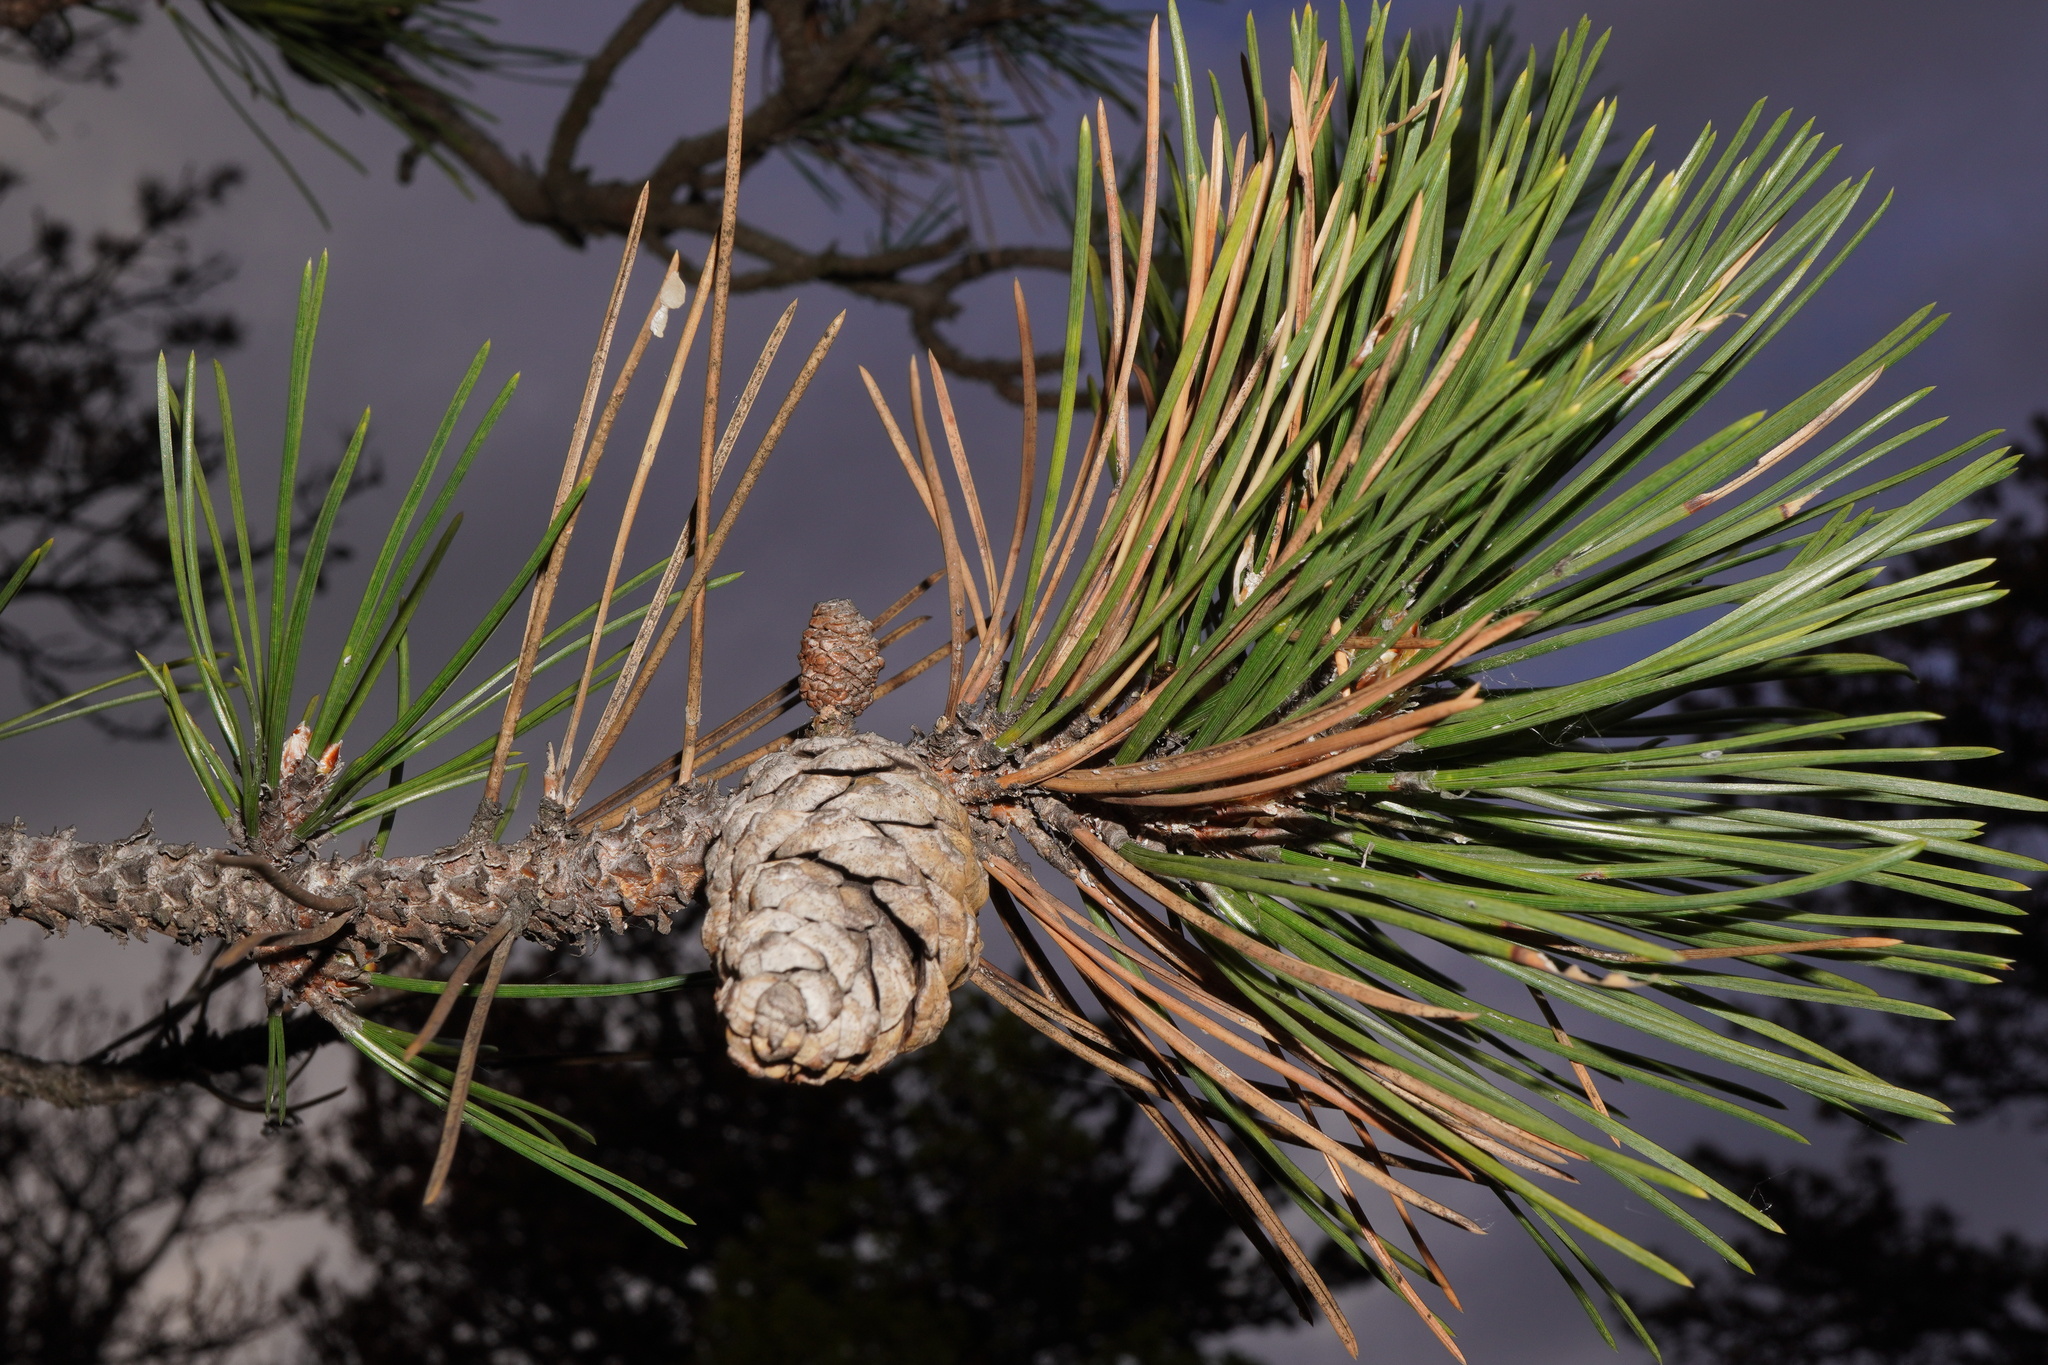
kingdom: Plantae
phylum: Tracheophyta
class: Pinopsida
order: Pinales
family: Pinaceae
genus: Pinus
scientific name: Pinus nigra
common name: Austrian pine
